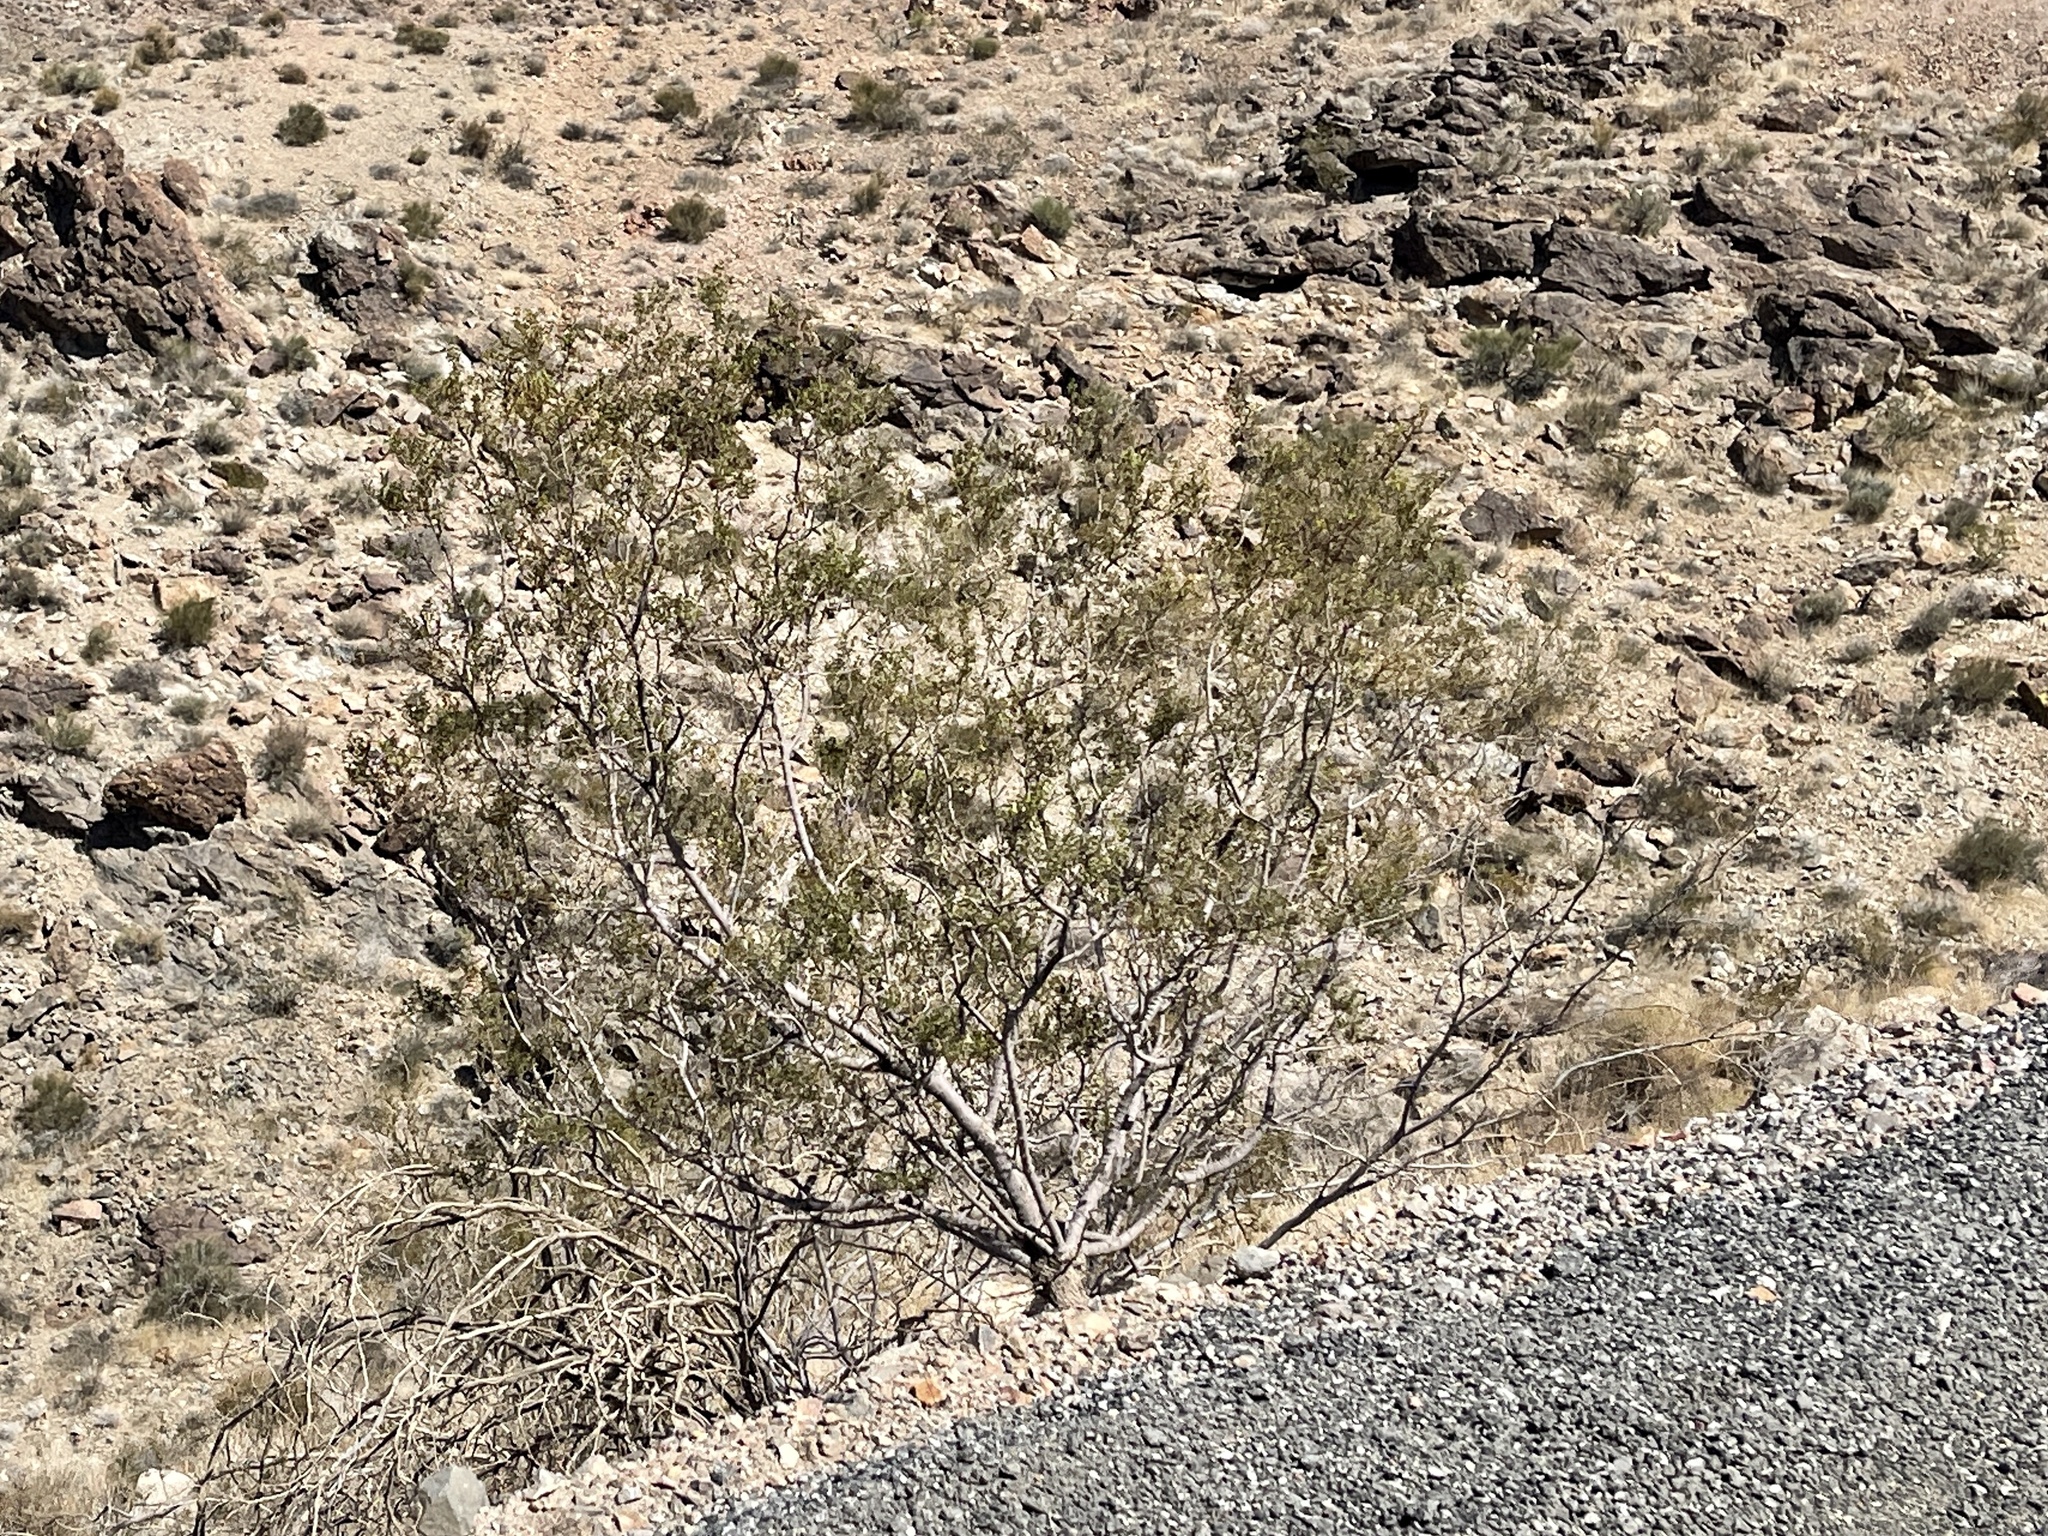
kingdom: Plantae
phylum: Tracheophyta
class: Magnoliopsida
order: Zygophyllales
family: Zygophyllaceae
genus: Larrea
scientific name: Larrea tridentata
